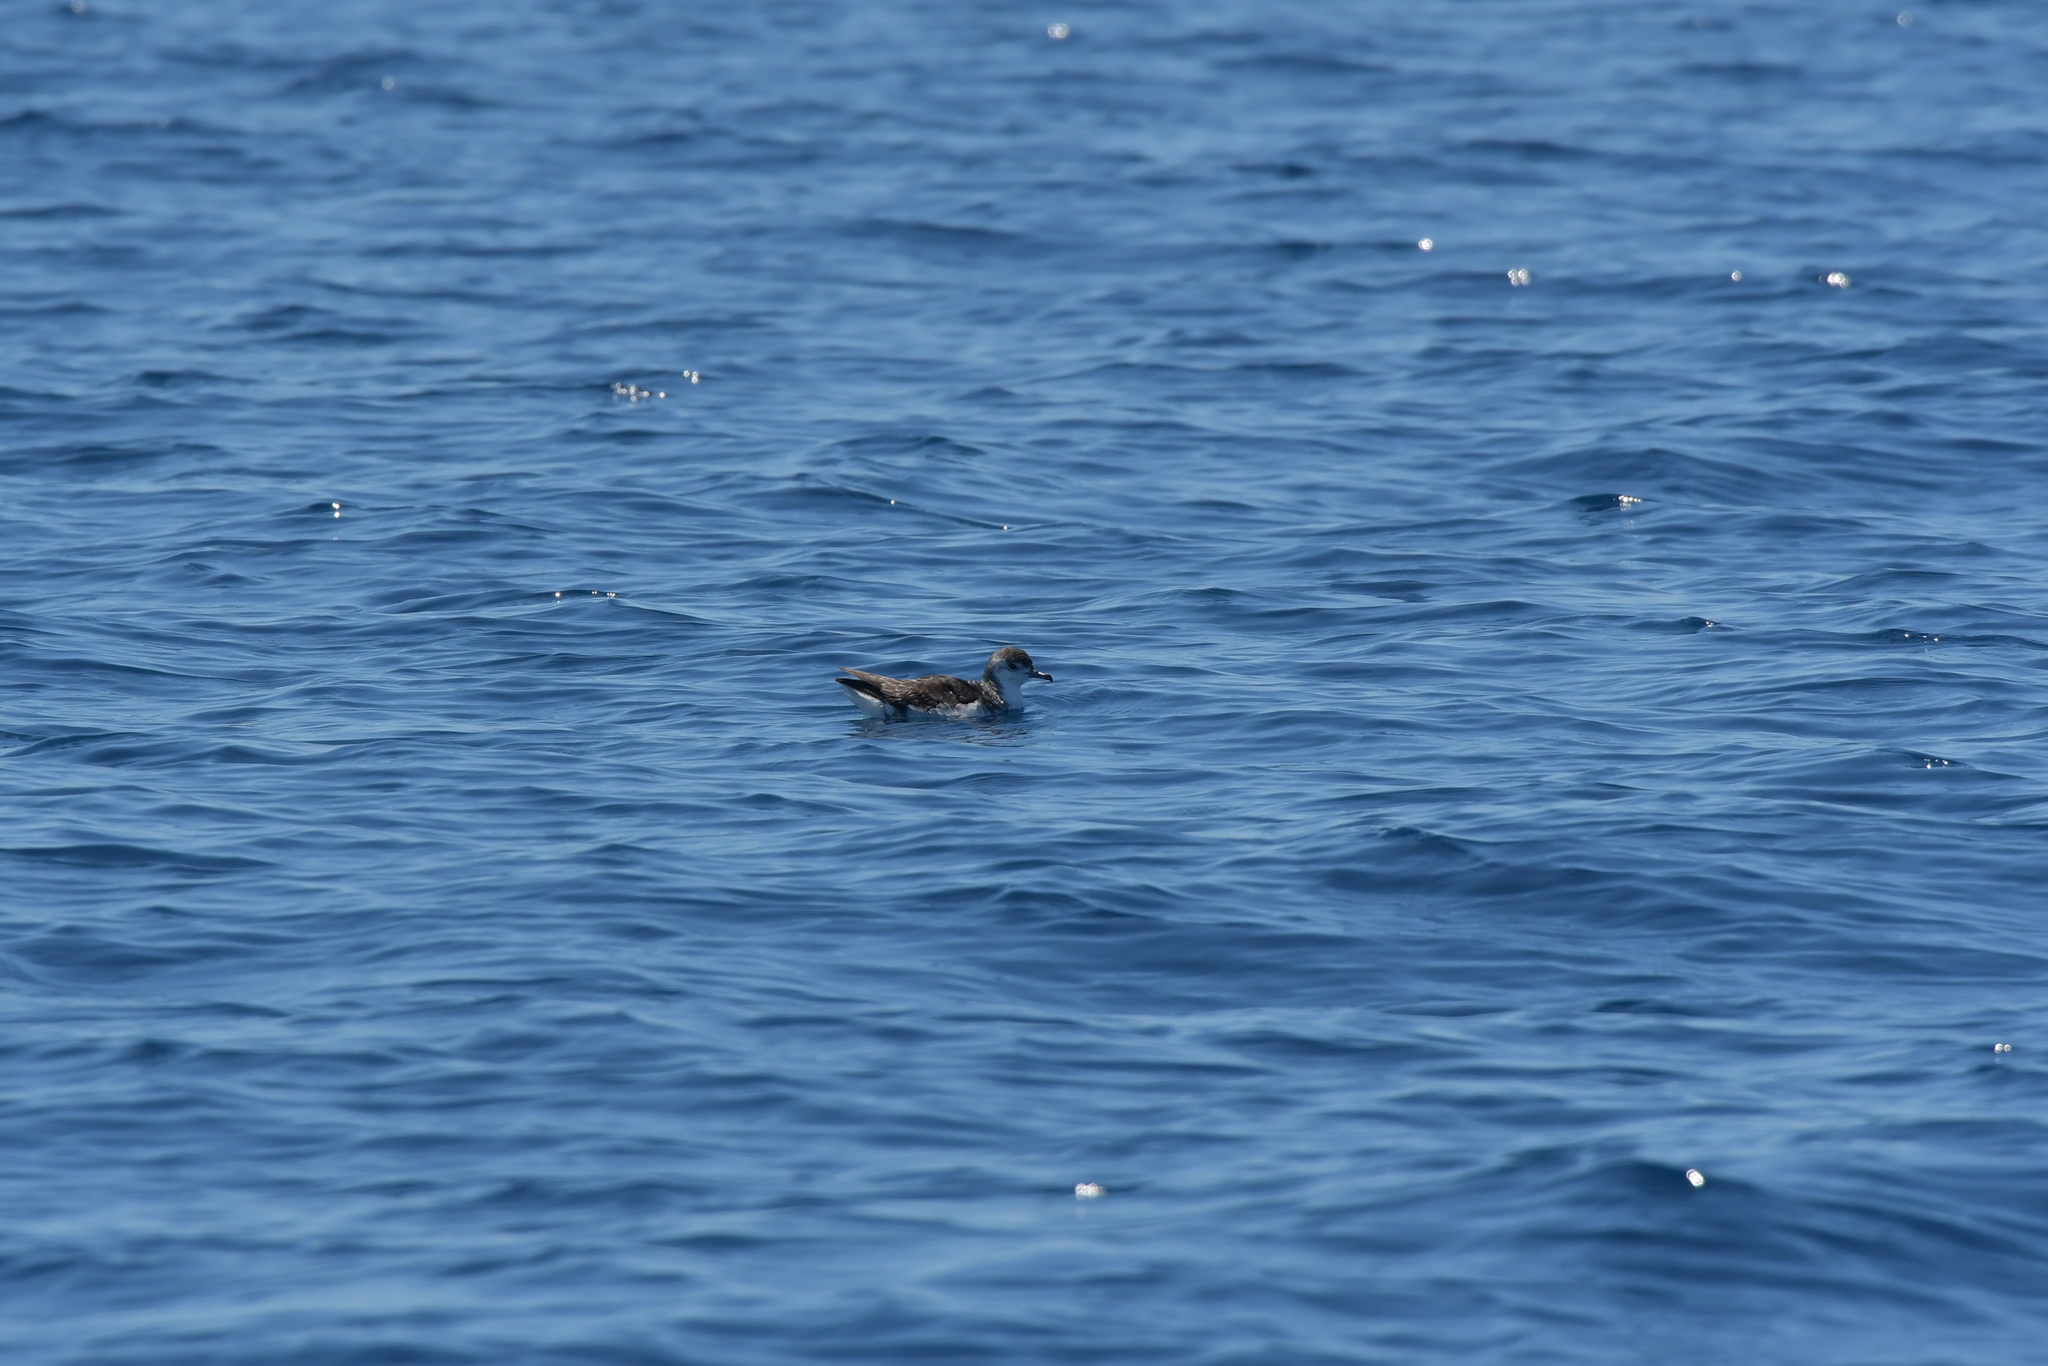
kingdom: Animalia
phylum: Chordata
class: Aves
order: Procellariiformes
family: Procellariidae
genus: Puffinus
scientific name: Puffinus assimilis
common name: Little shearwater
